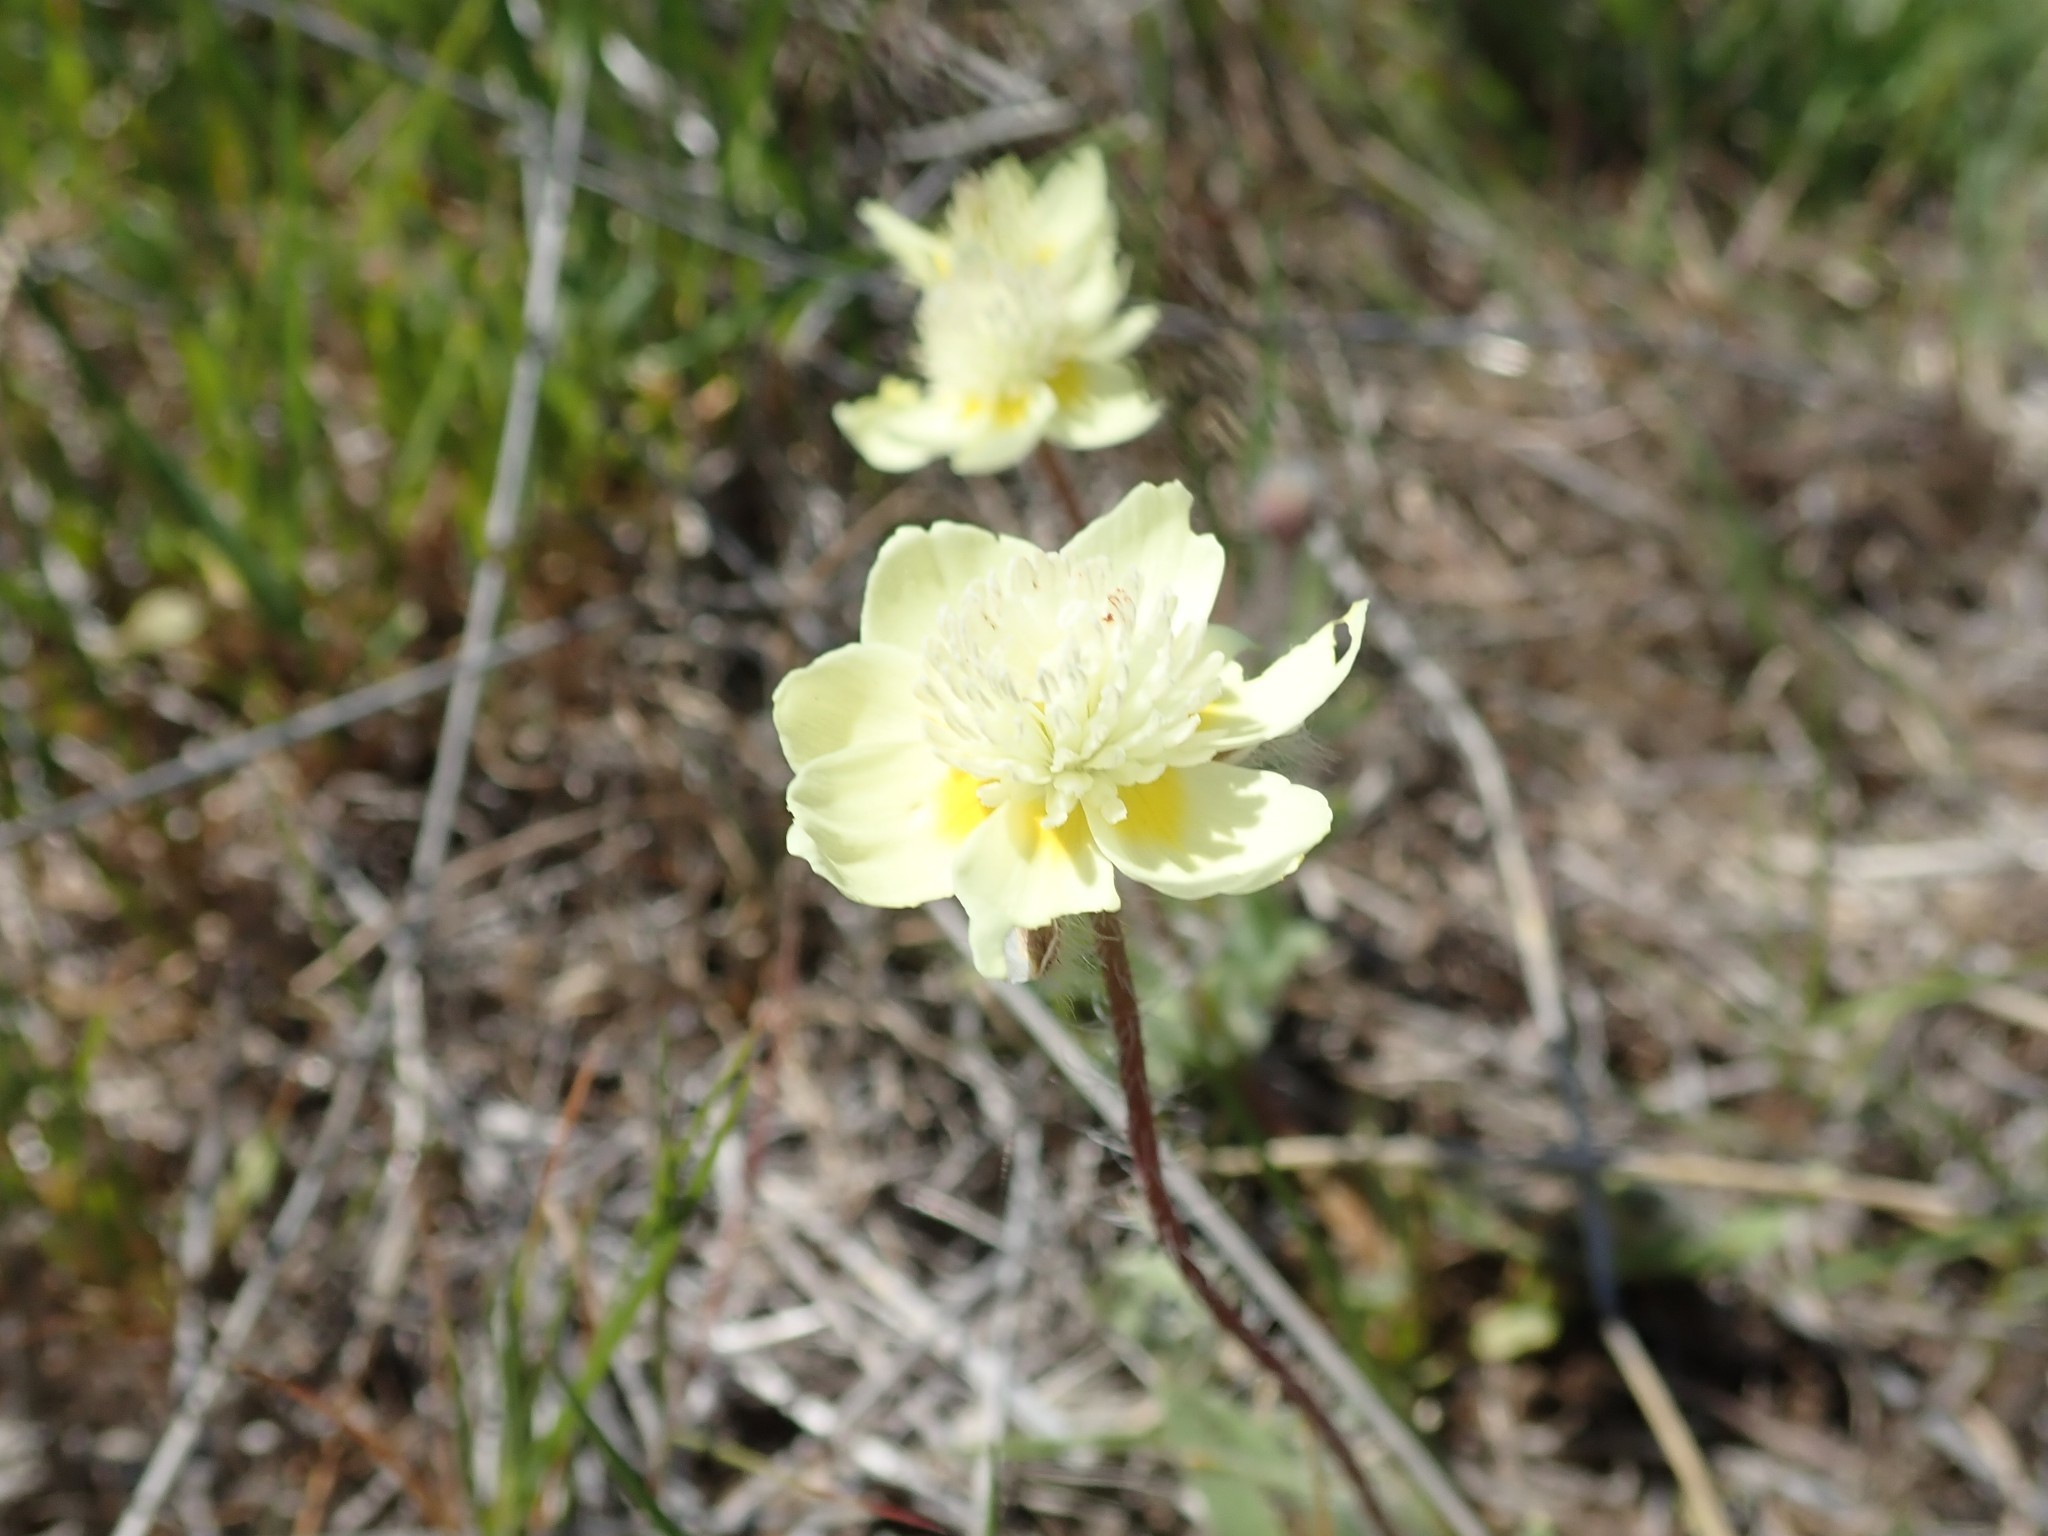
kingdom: Plantae
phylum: Tracheophyta
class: Magnoliopsida
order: Ranunculales
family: Papaveraceae
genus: Platystemon
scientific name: Platystemon californicus
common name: Cream-cups
